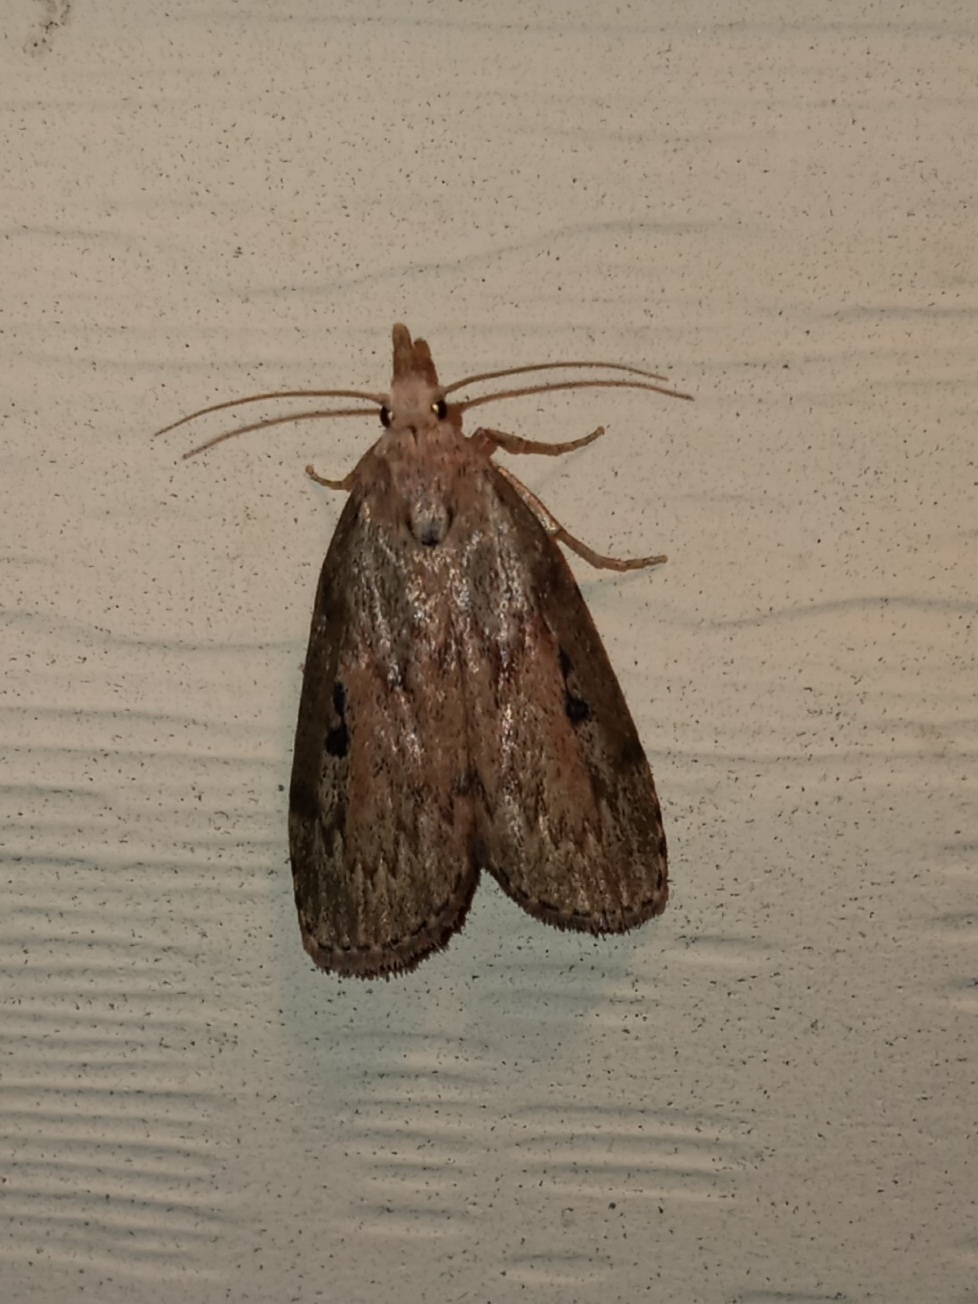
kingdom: Animalia
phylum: Arthropoda
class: Insecta
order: Lepidoptera
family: Pyralidae
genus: Aphomia
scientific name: Aphomia sociella
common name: Bee moth
